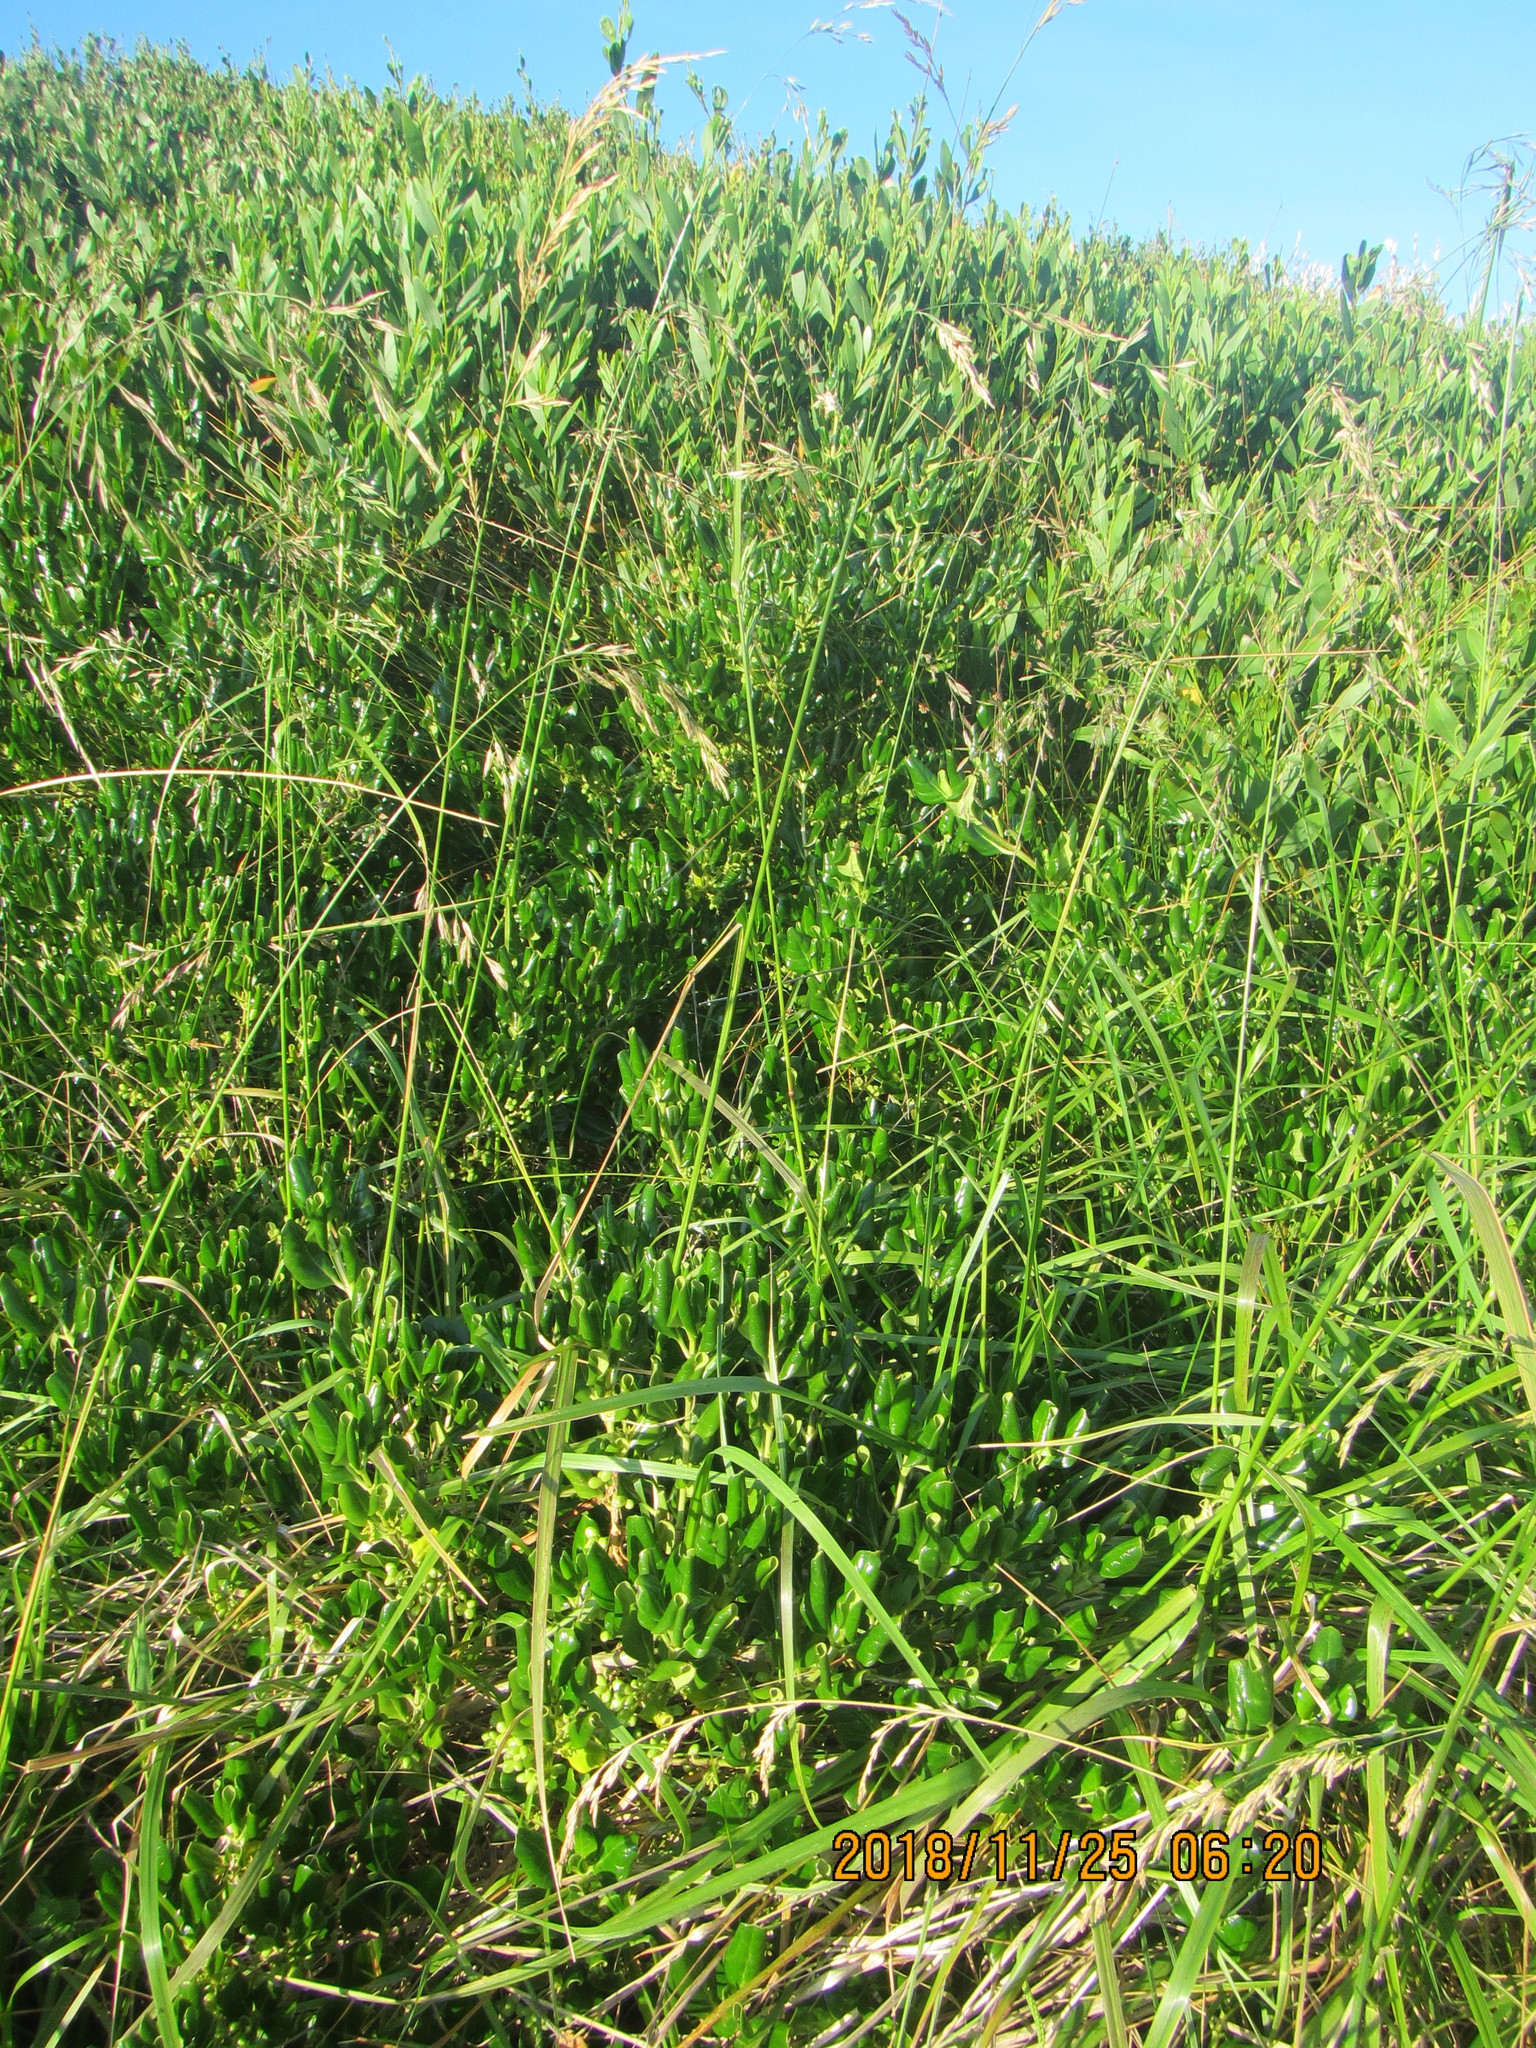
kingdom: Plantae
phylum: Tracheophyta
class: Magnoliopsida
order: Gentianales
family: Rubiaceae
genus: Coprosma
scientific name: Coprosma repens
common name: Tree bedstraw
